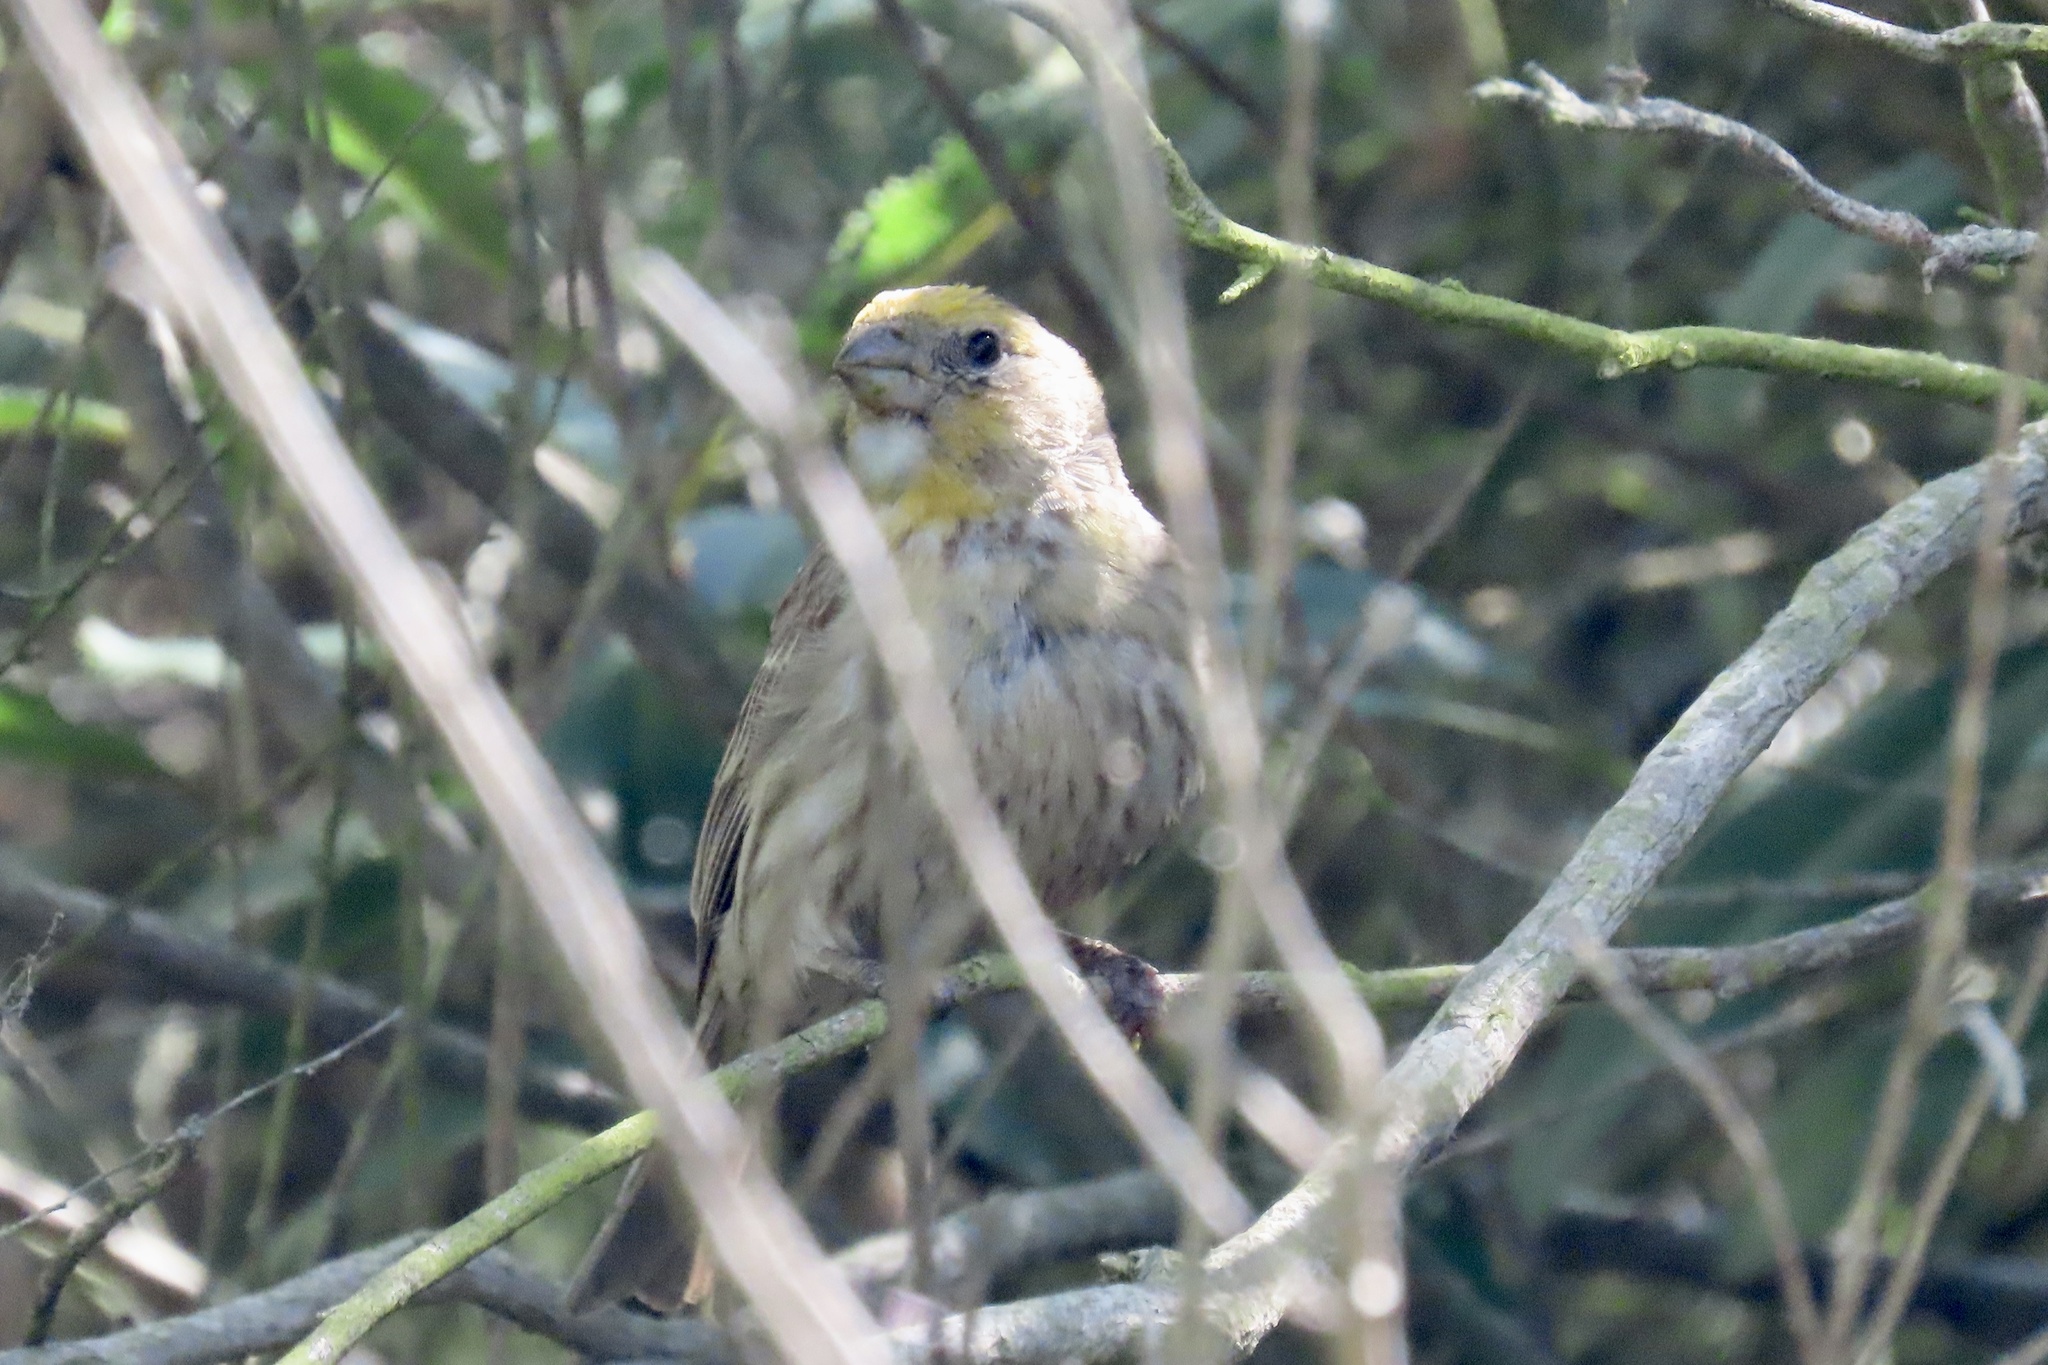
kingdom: Animalia
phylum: Chordata
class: Aves
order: Passeriformes
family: Fringillidae
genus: Haemorhous
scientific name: Haemorhous mexicanus
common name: House finch
